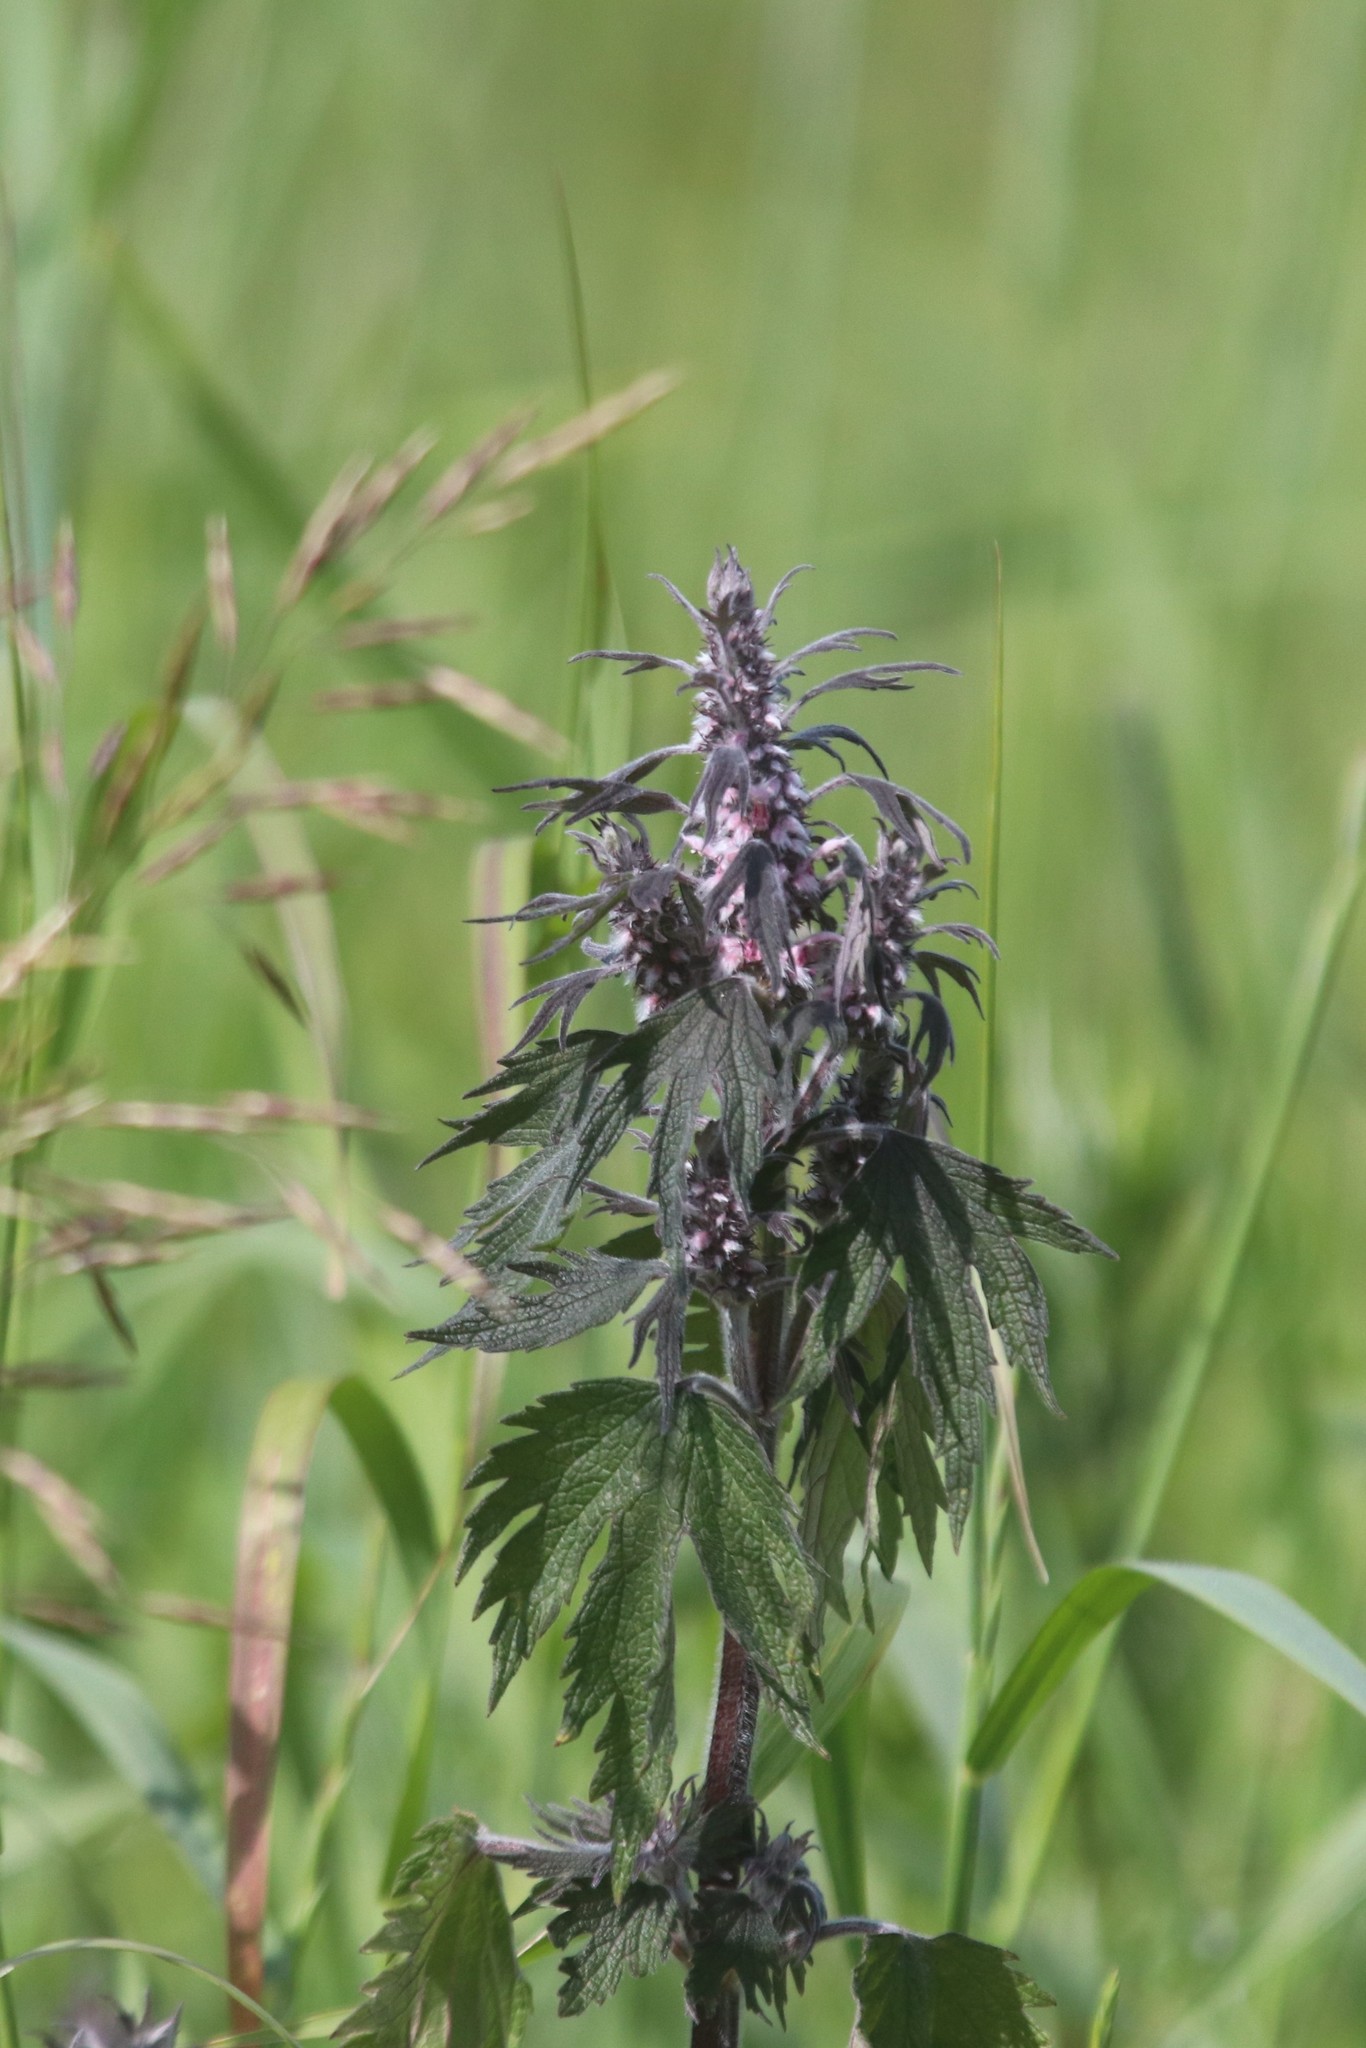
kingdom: Plantae
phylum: Tracheophyta
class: Magnoliopsida
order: Lamiales
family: Lamiaceae
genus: Leonurus
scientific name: Leonurus quinquelobatus
